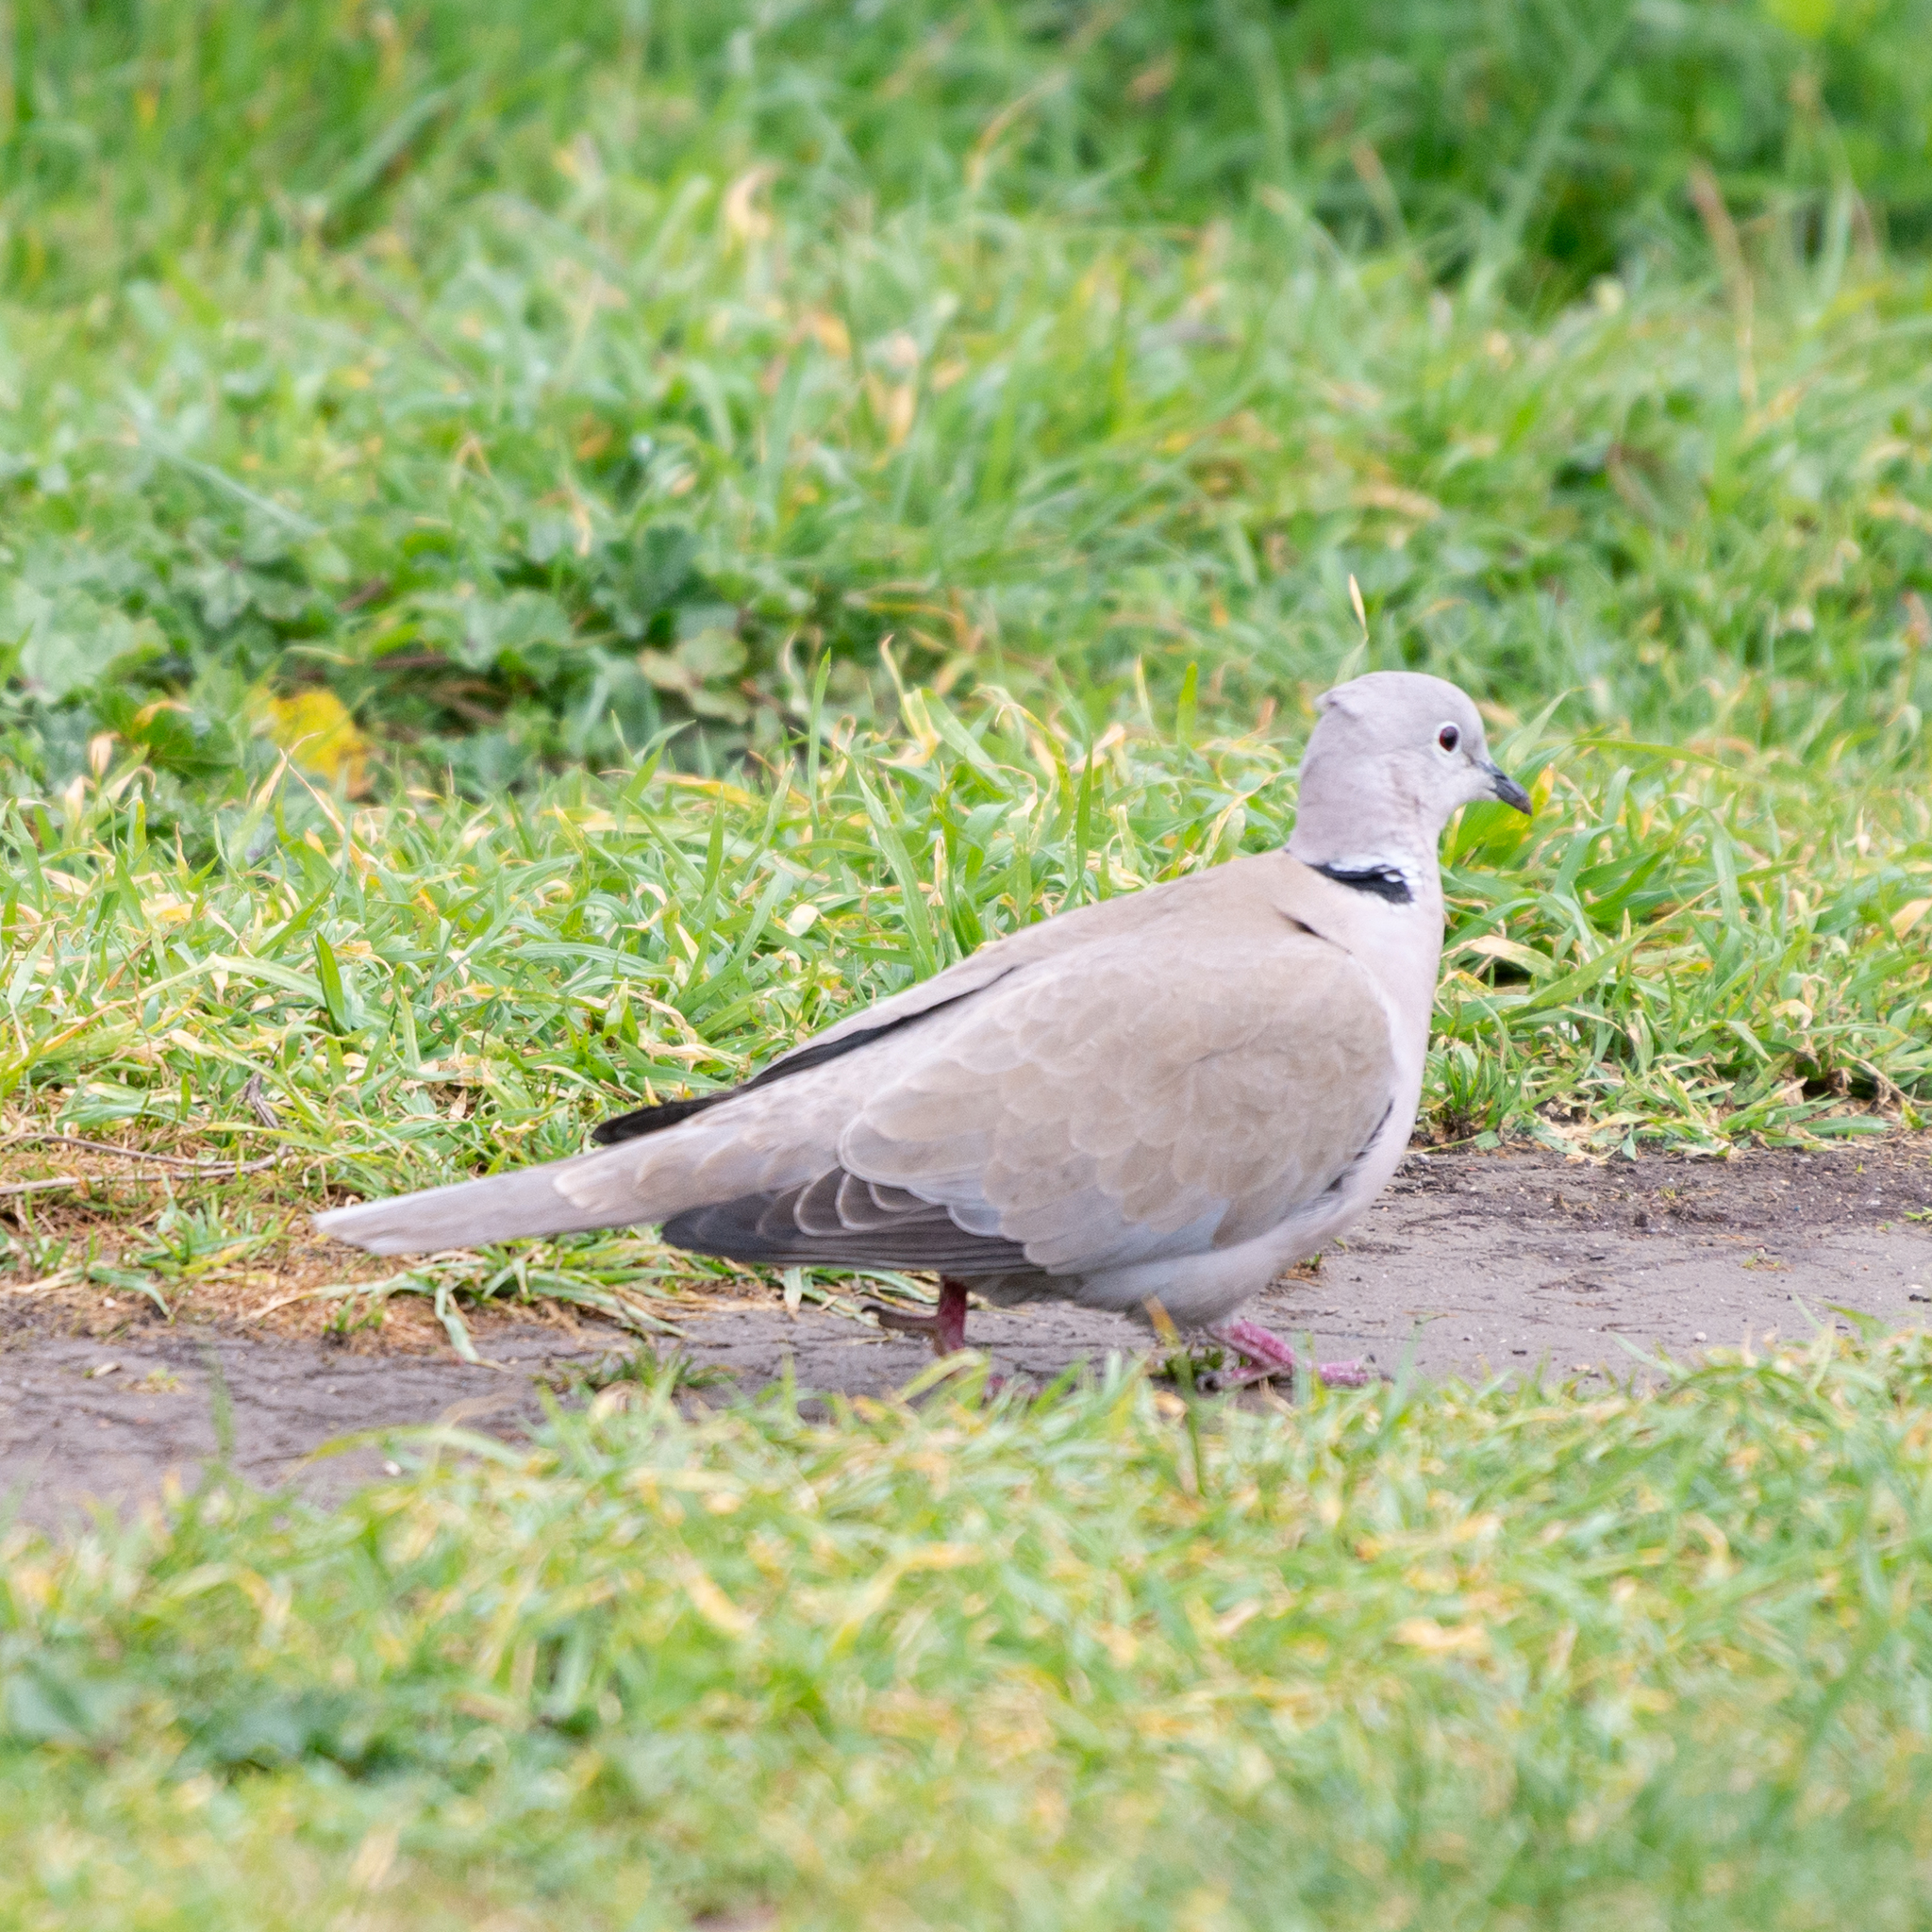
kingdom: Animalia
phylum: Chordata
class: Aves
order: Columbiformes
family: Columbidae
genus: Streptopelia
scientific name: Streptopelia decaocto
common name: Eurasian collared dove
